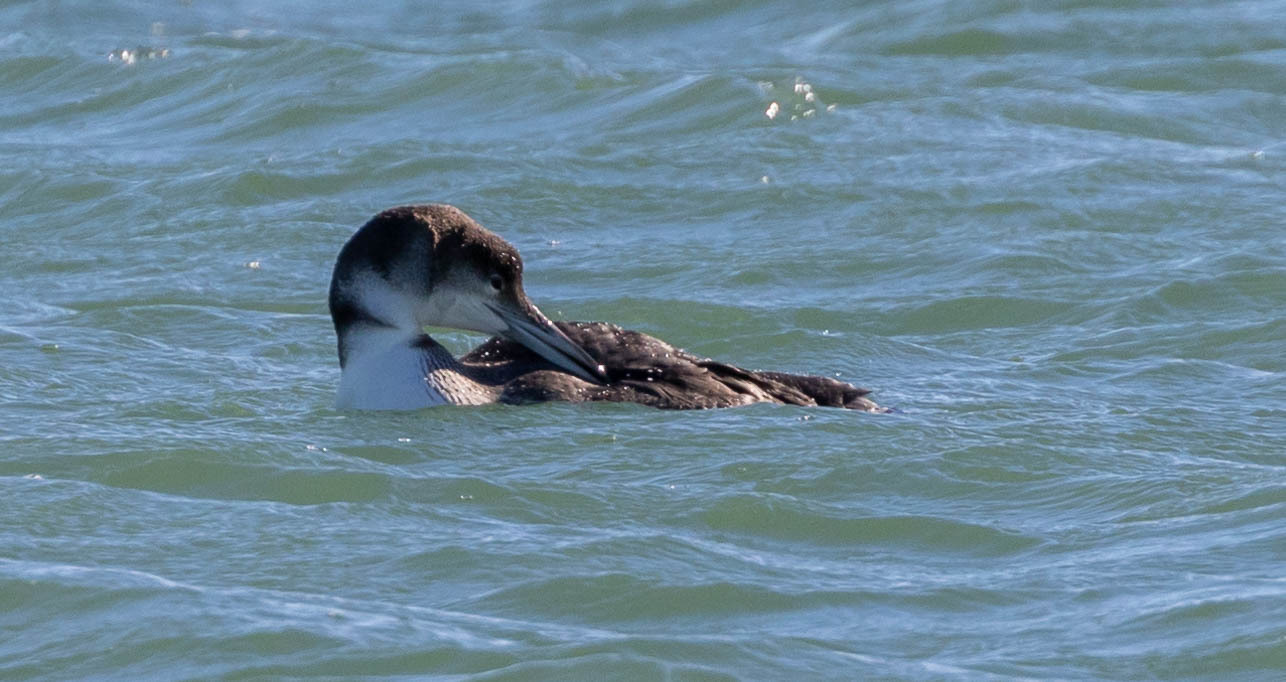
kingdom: Animalia
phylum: Chordata
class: Aves
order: Gaviiformes
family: Gaviidae
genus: Gavia
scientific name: Gavia immer
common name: Common loon
